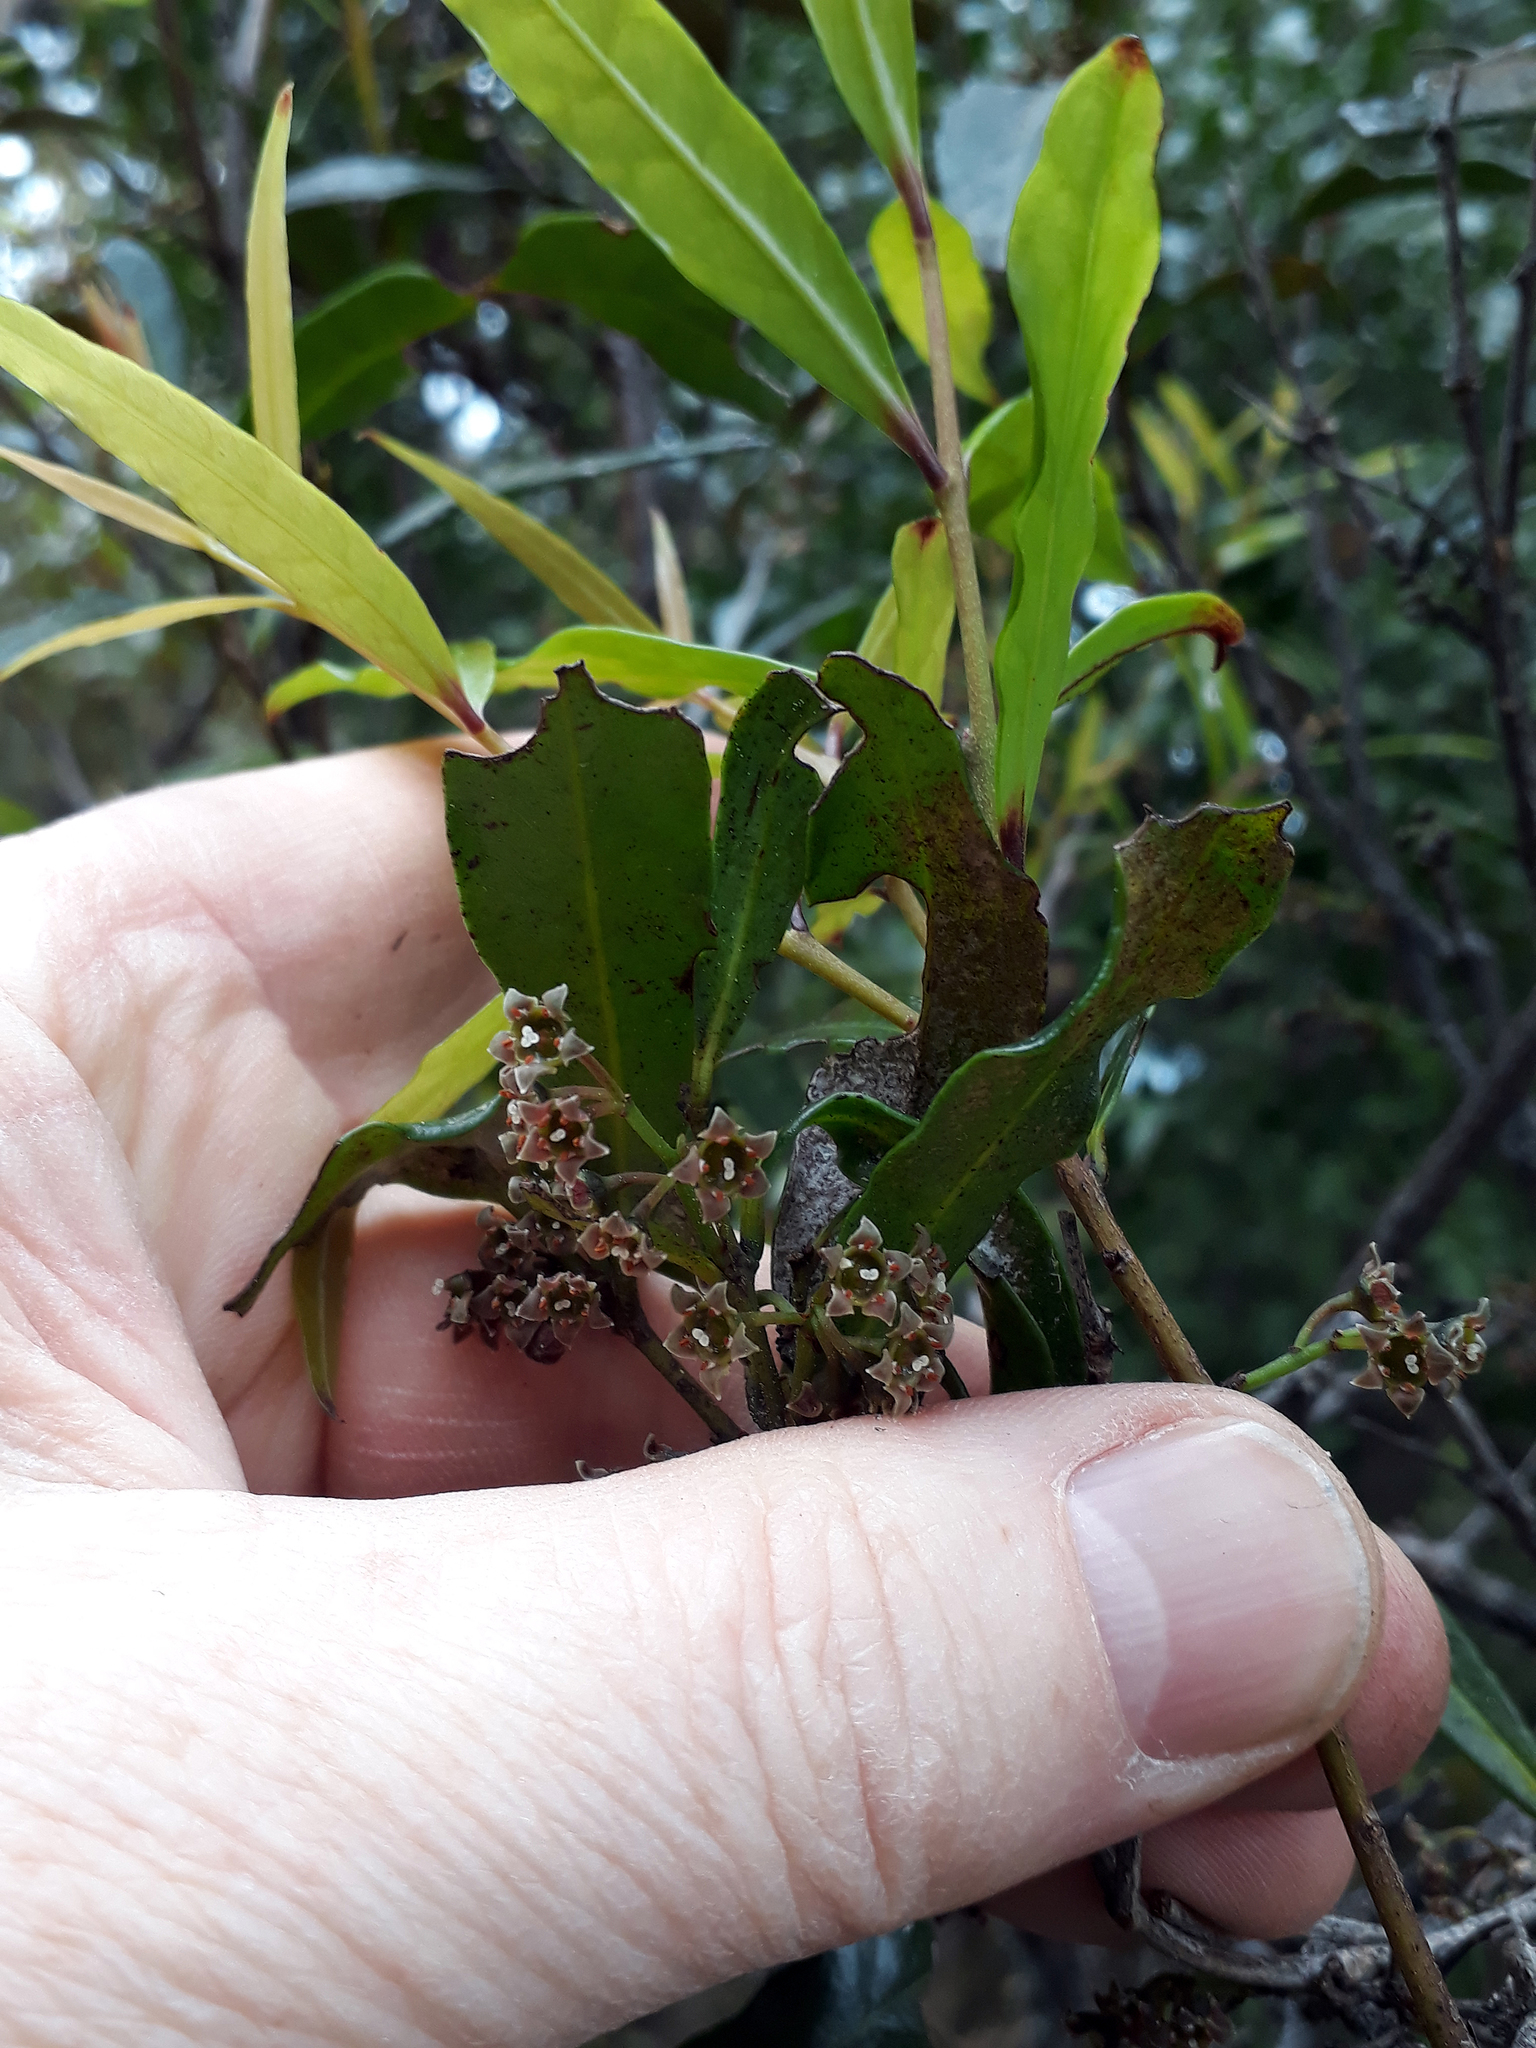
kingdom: Plantae
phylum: Tracheophyta
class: Magnoliopsida
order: Santalales
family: Nanodeaceae
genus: Mida
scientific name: Mida salicifolia
